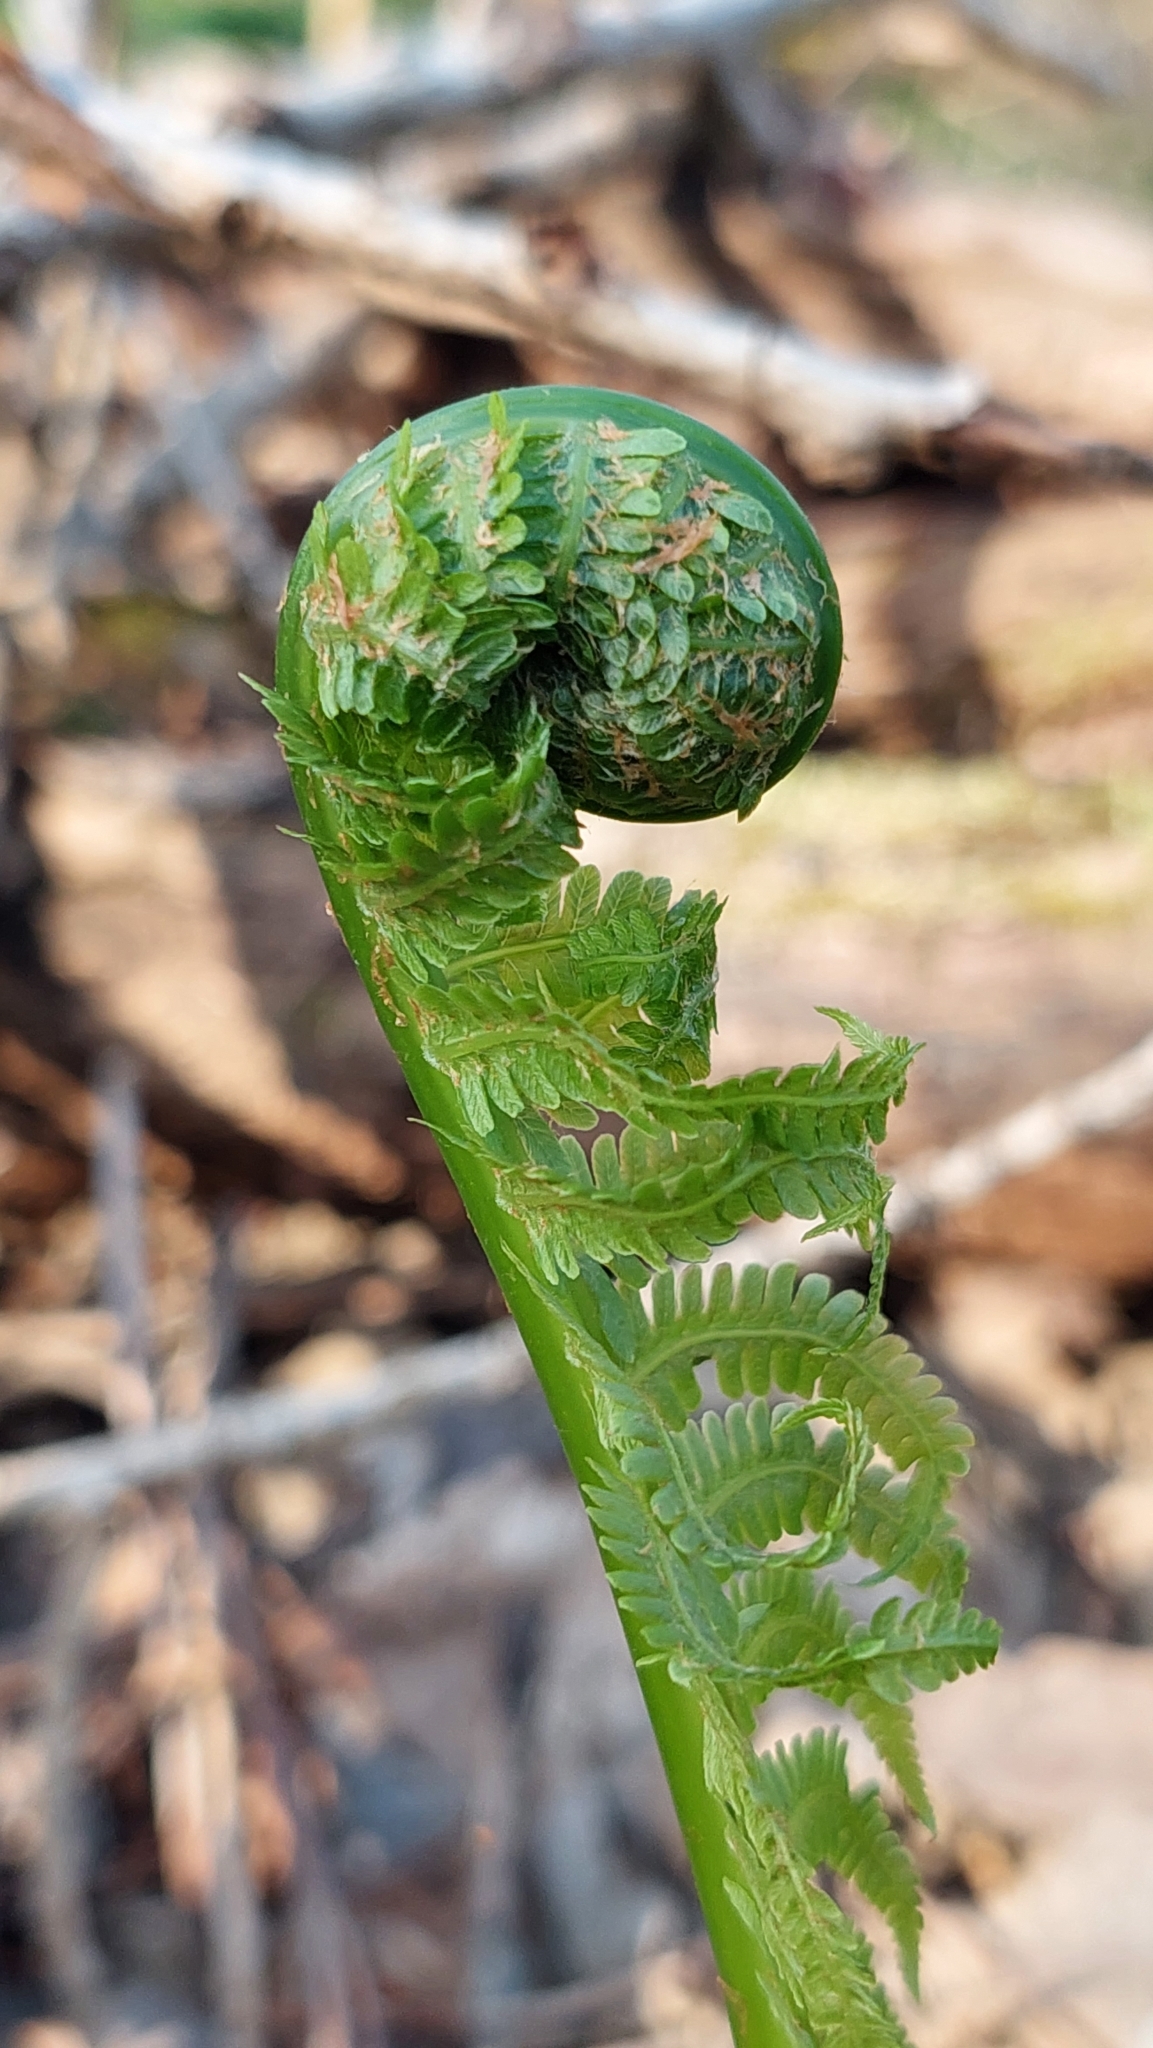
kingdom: Plantae
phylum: Tracheophyta
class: Polypodiopsida
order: Polypodiales
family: Onocleaceae
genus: Matteuccia
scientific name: Matteuccia struthiopteris
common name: Ostrich fern
